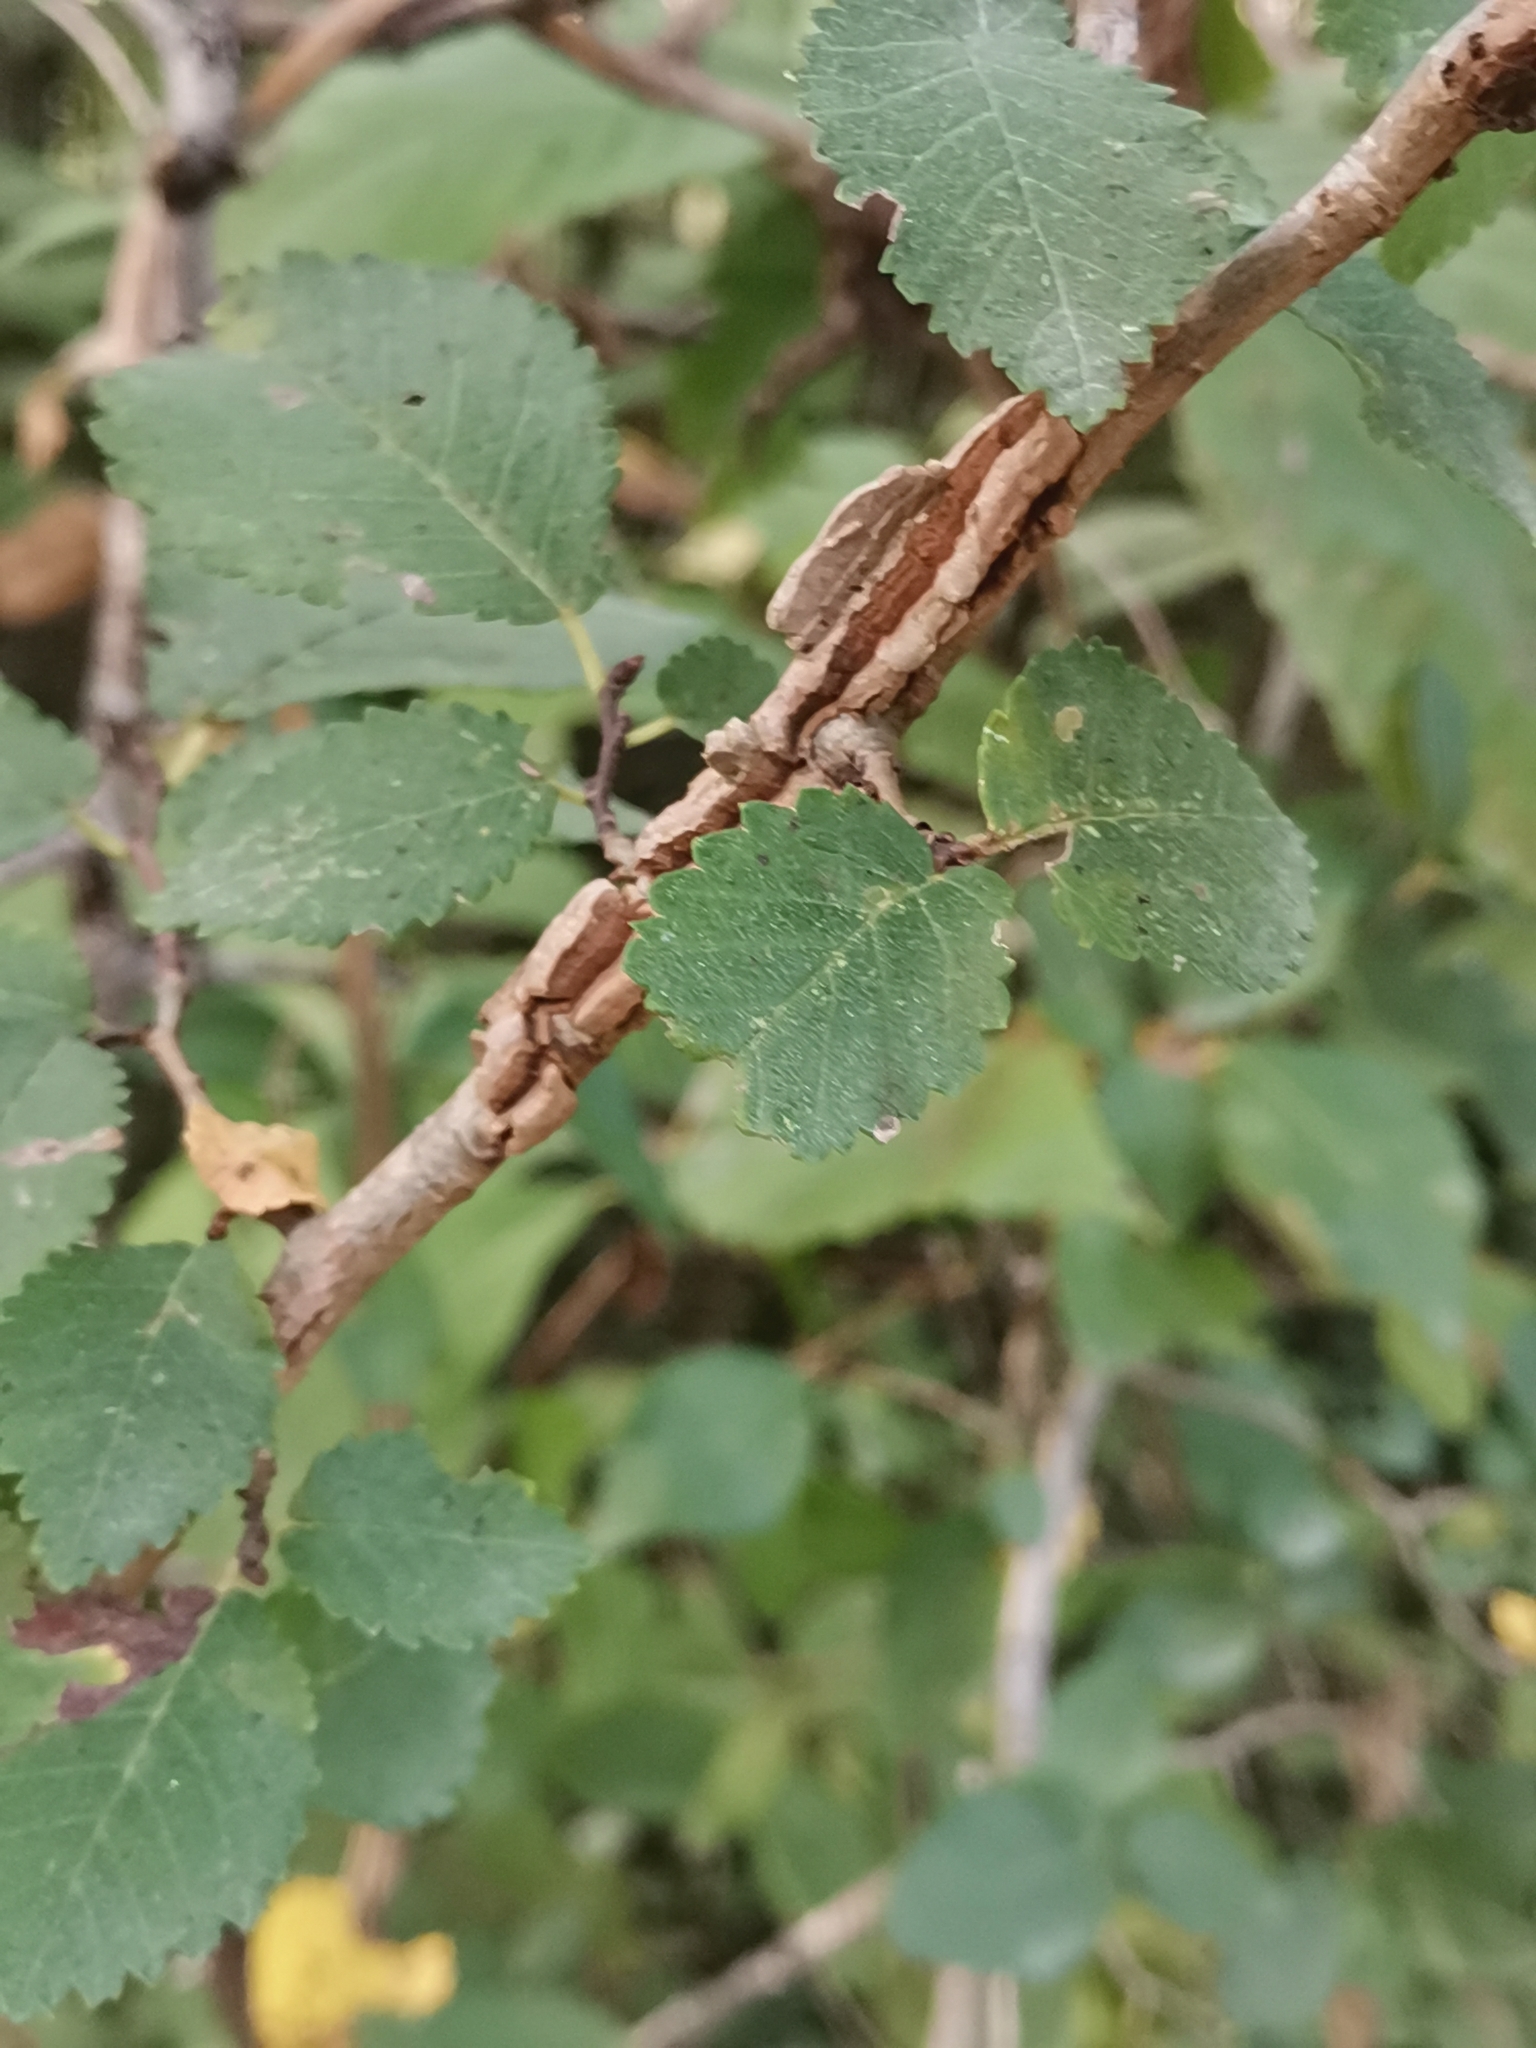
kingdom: Plantae
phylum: Tracheophyta
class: Magnoliopsida
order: Rosales
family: Ulmaceae
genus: Ulmus
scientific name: Ulmus minor
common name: Small-leaved elm
